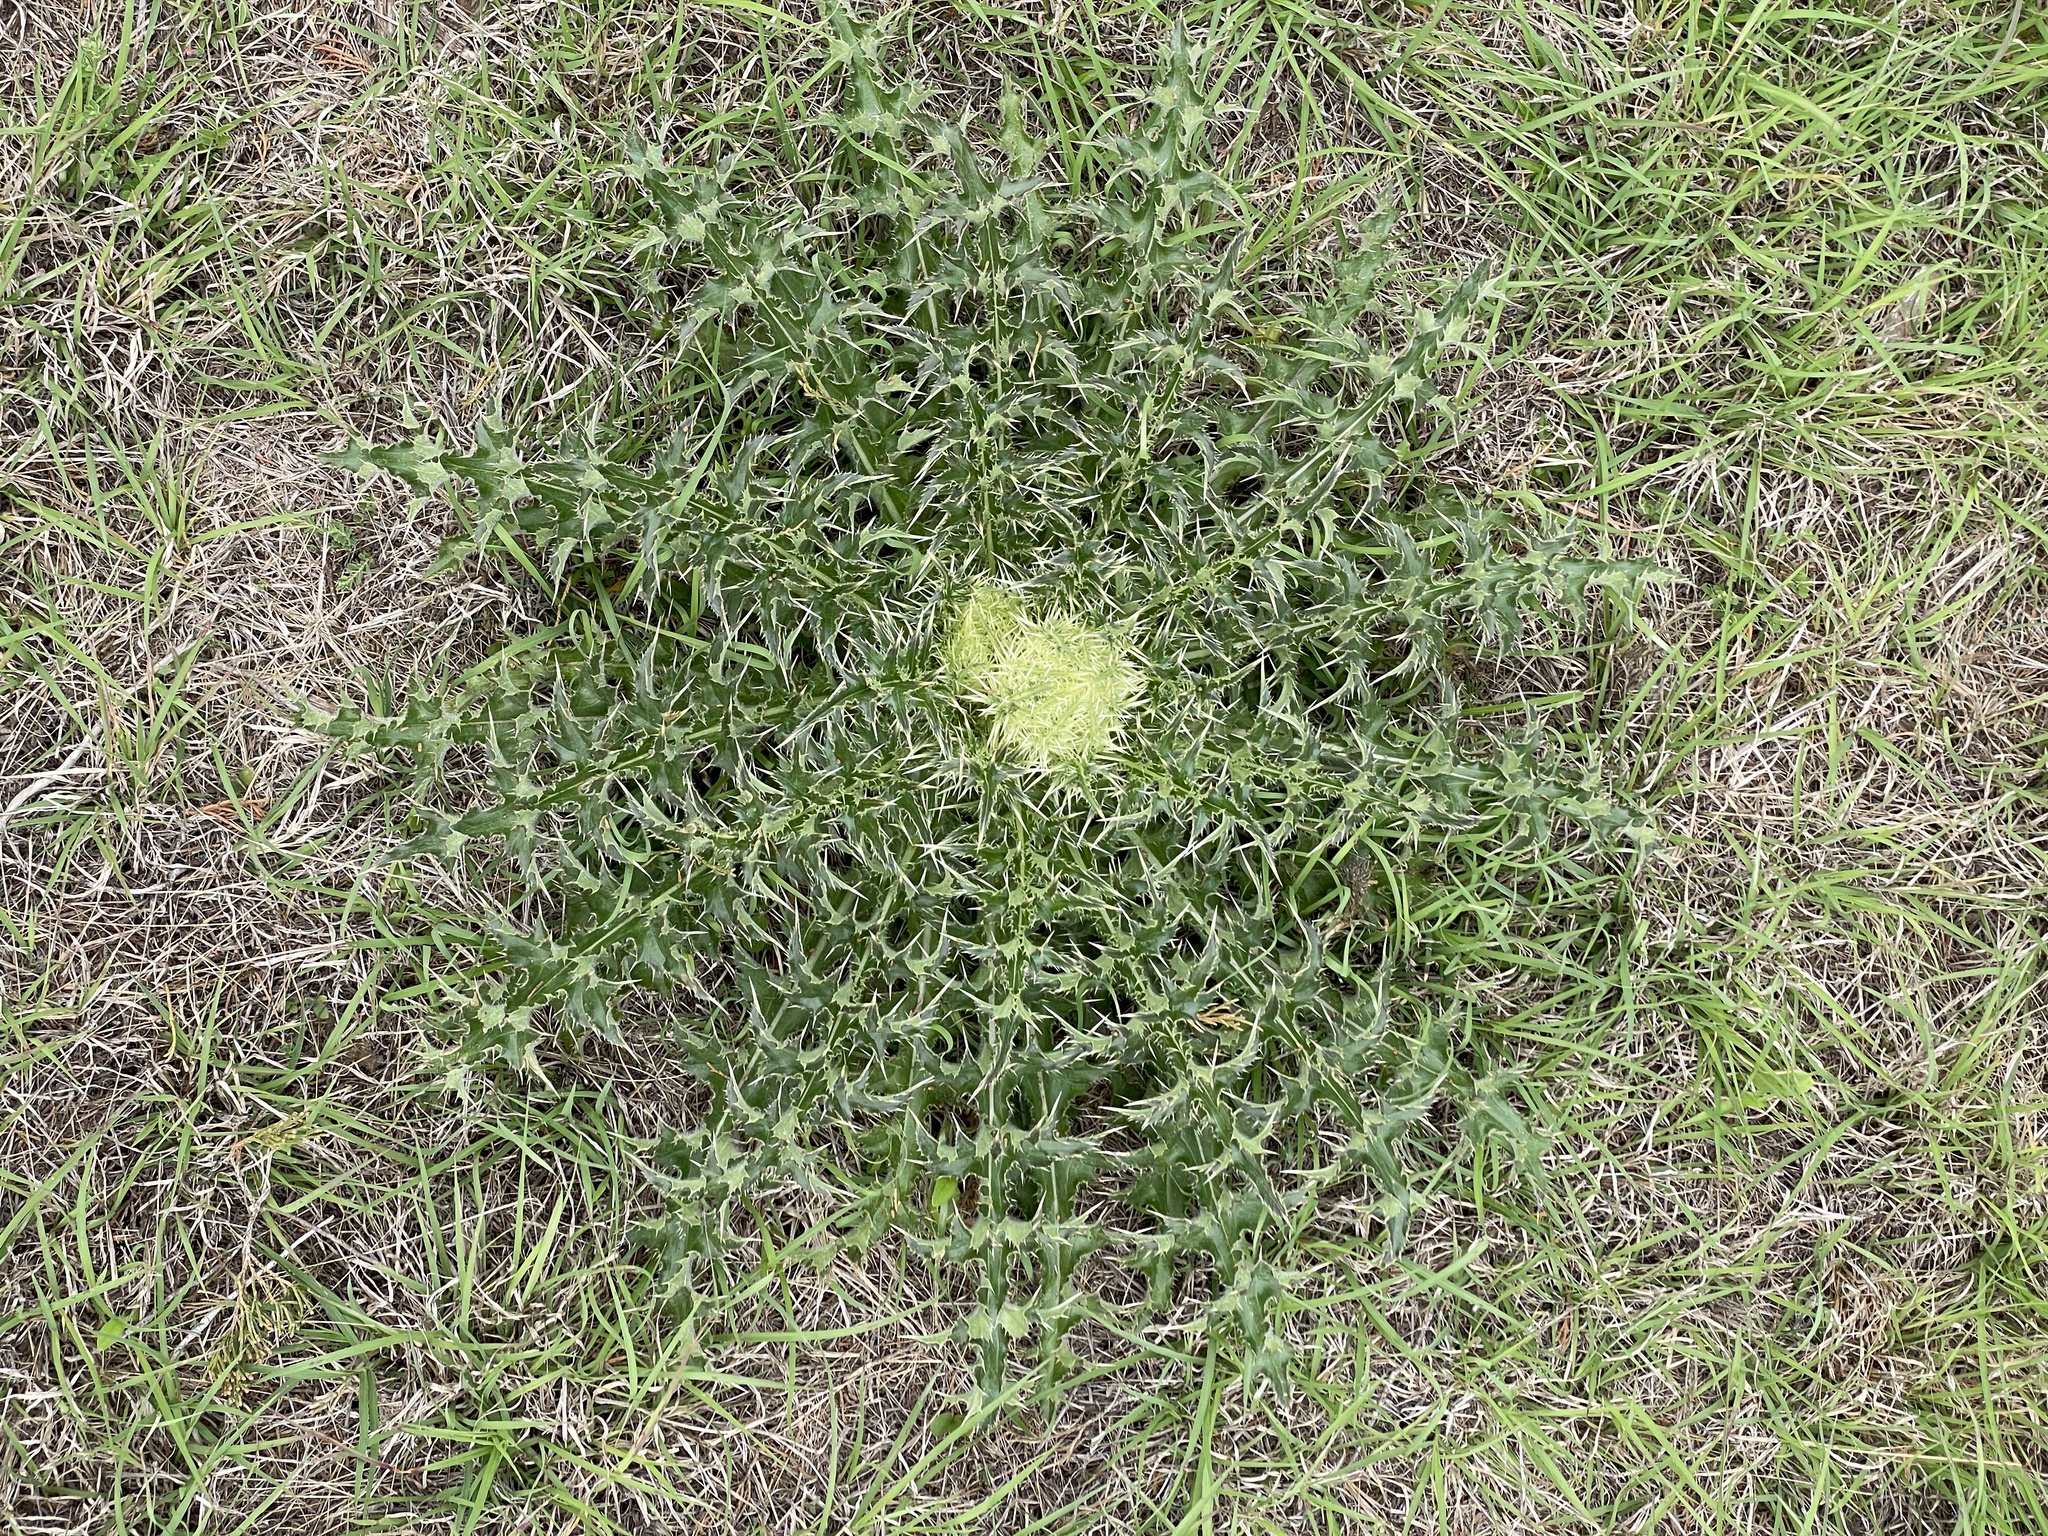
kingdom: Plantae
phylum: Tracheophyta
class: Magnoliopsida
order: Asterales
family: Asteraceae
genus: Cirsium
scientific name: Cirsium horridulum
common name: Bristly thistle
